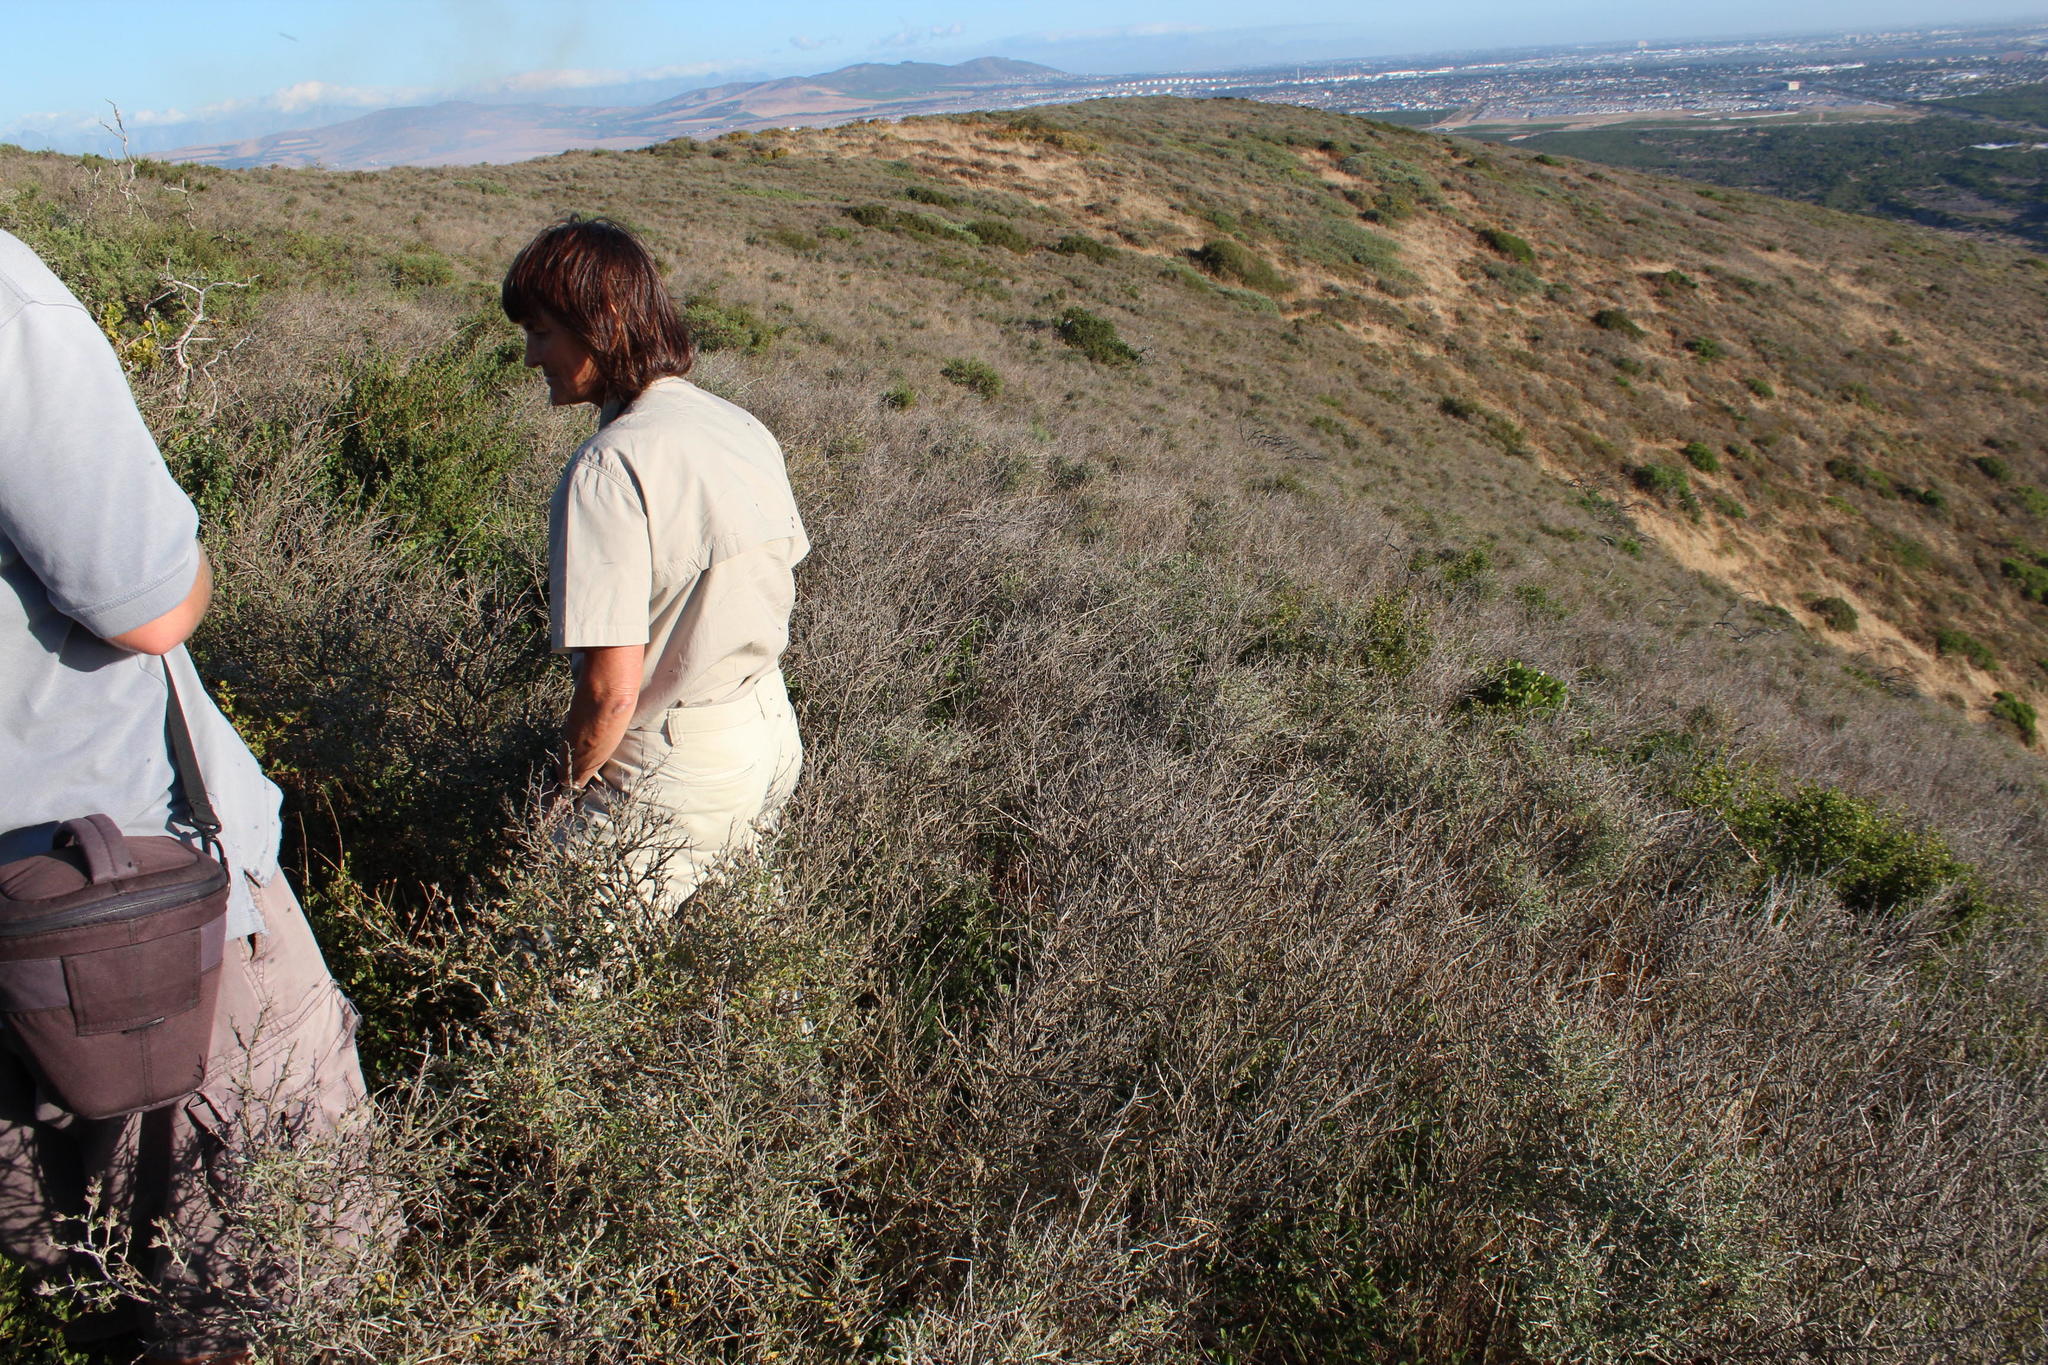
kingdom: Plantae
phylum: Tracheophyta
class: Magnoliopsida
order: Fabales
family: Fabaceae
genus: Psoralea
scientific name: Psoralea hirta
